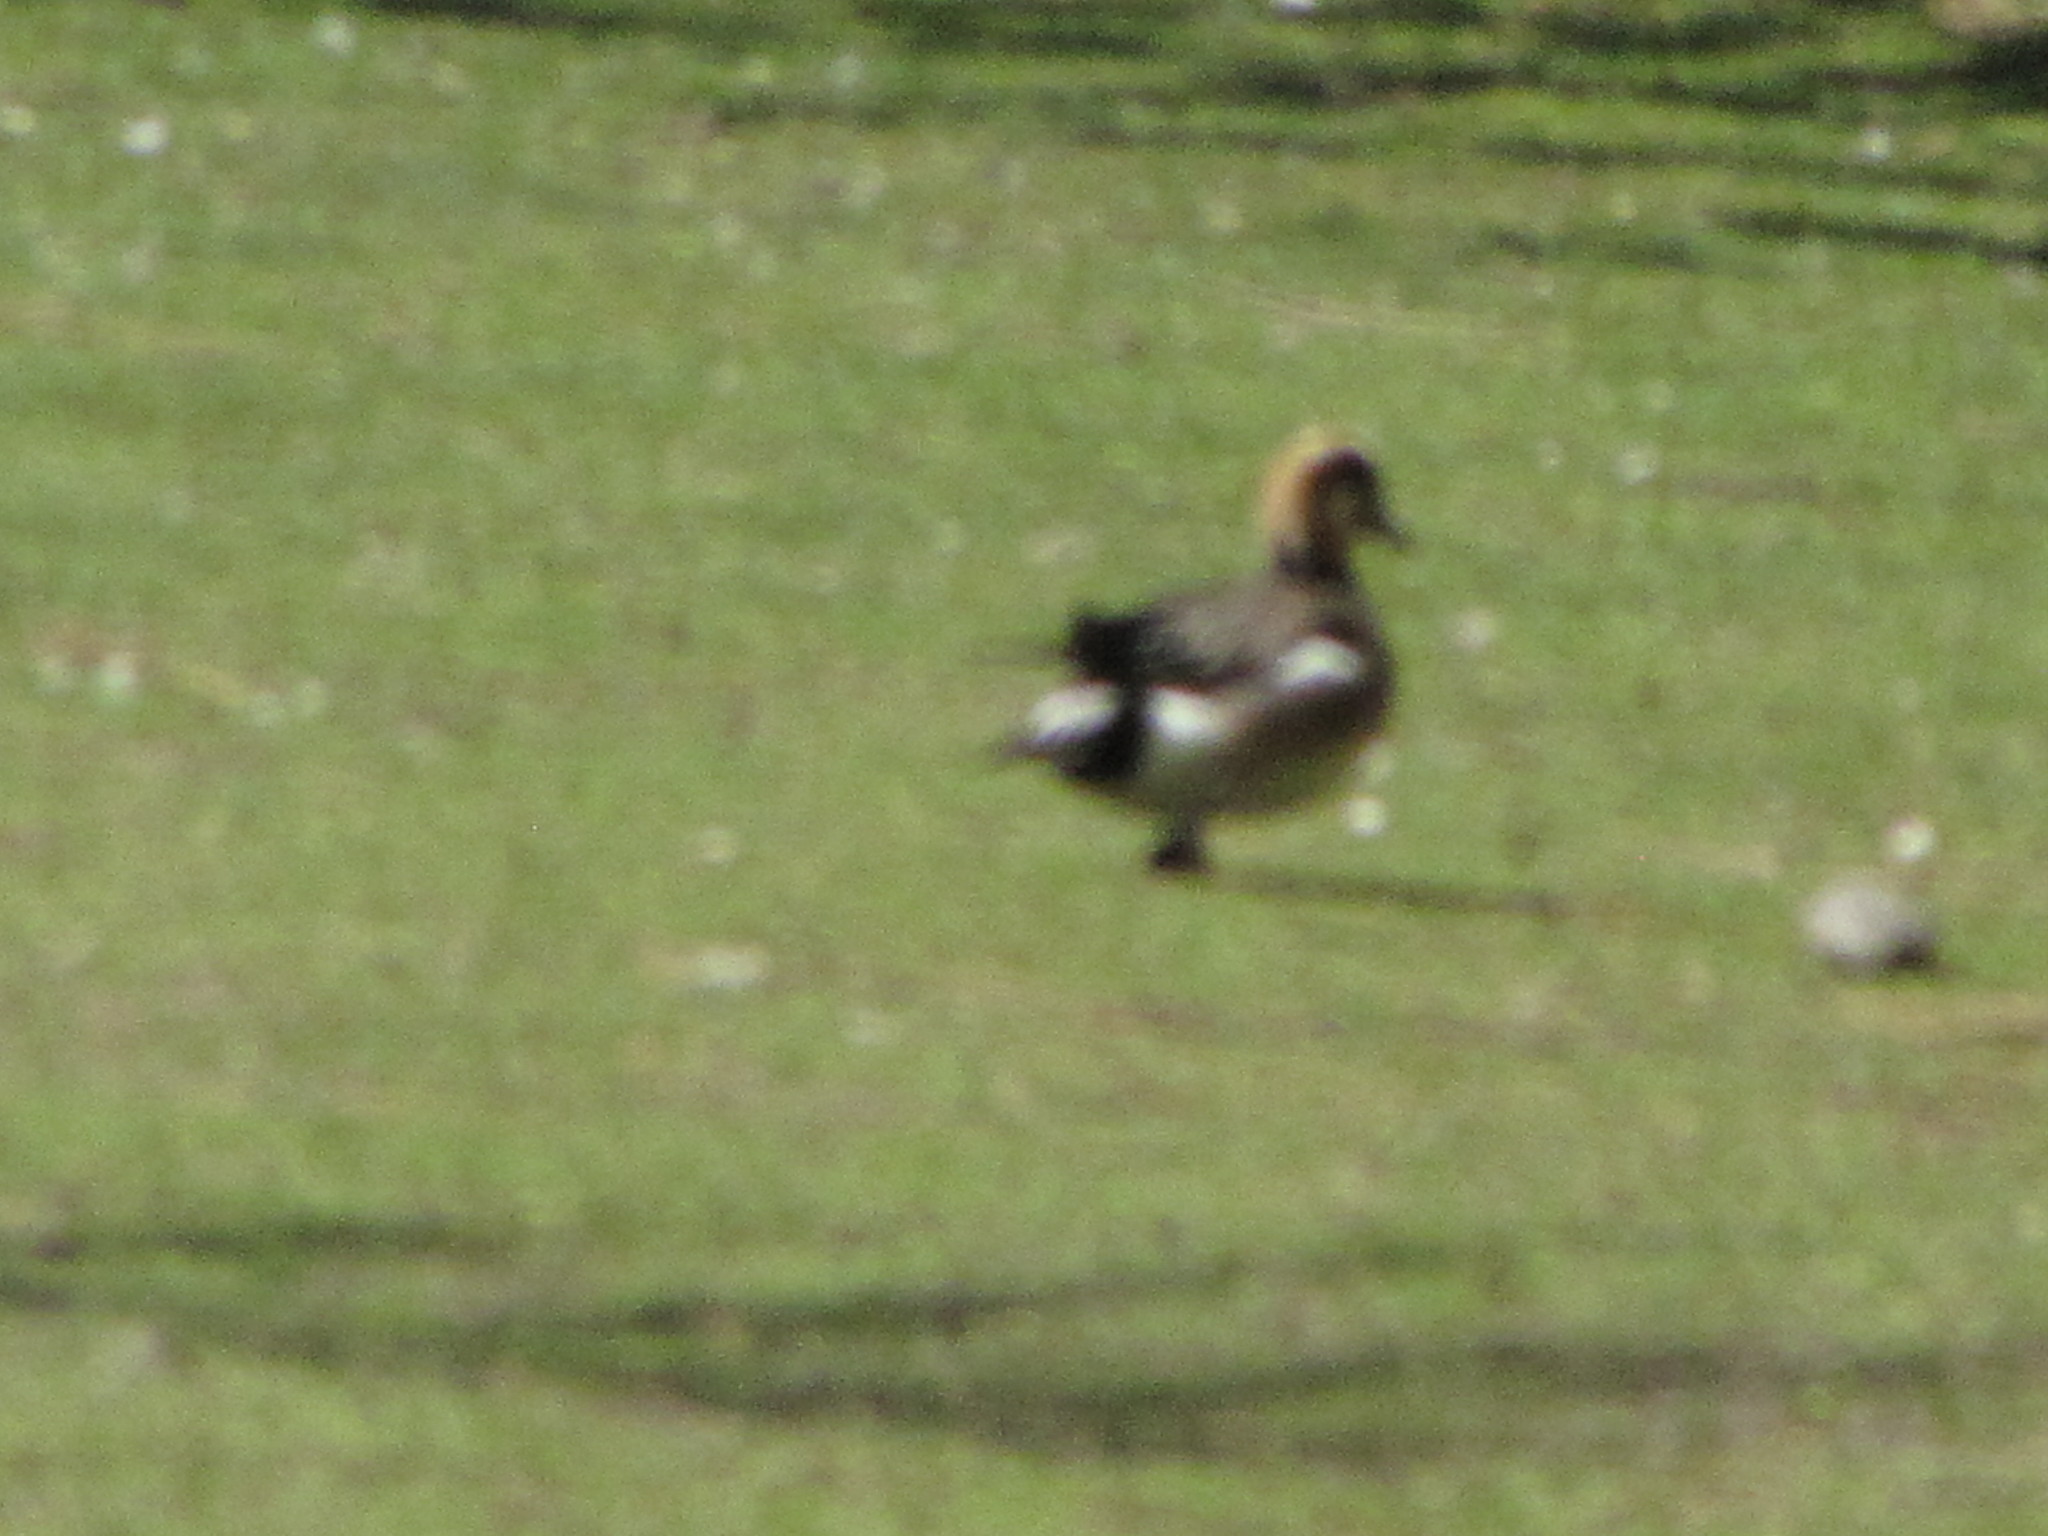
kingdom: Animalia
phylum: Chordata
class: Aves
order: Anseriformes
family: Anatidae
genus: Mareca
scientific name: Mareca penelope
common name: Eurasian wigeon
